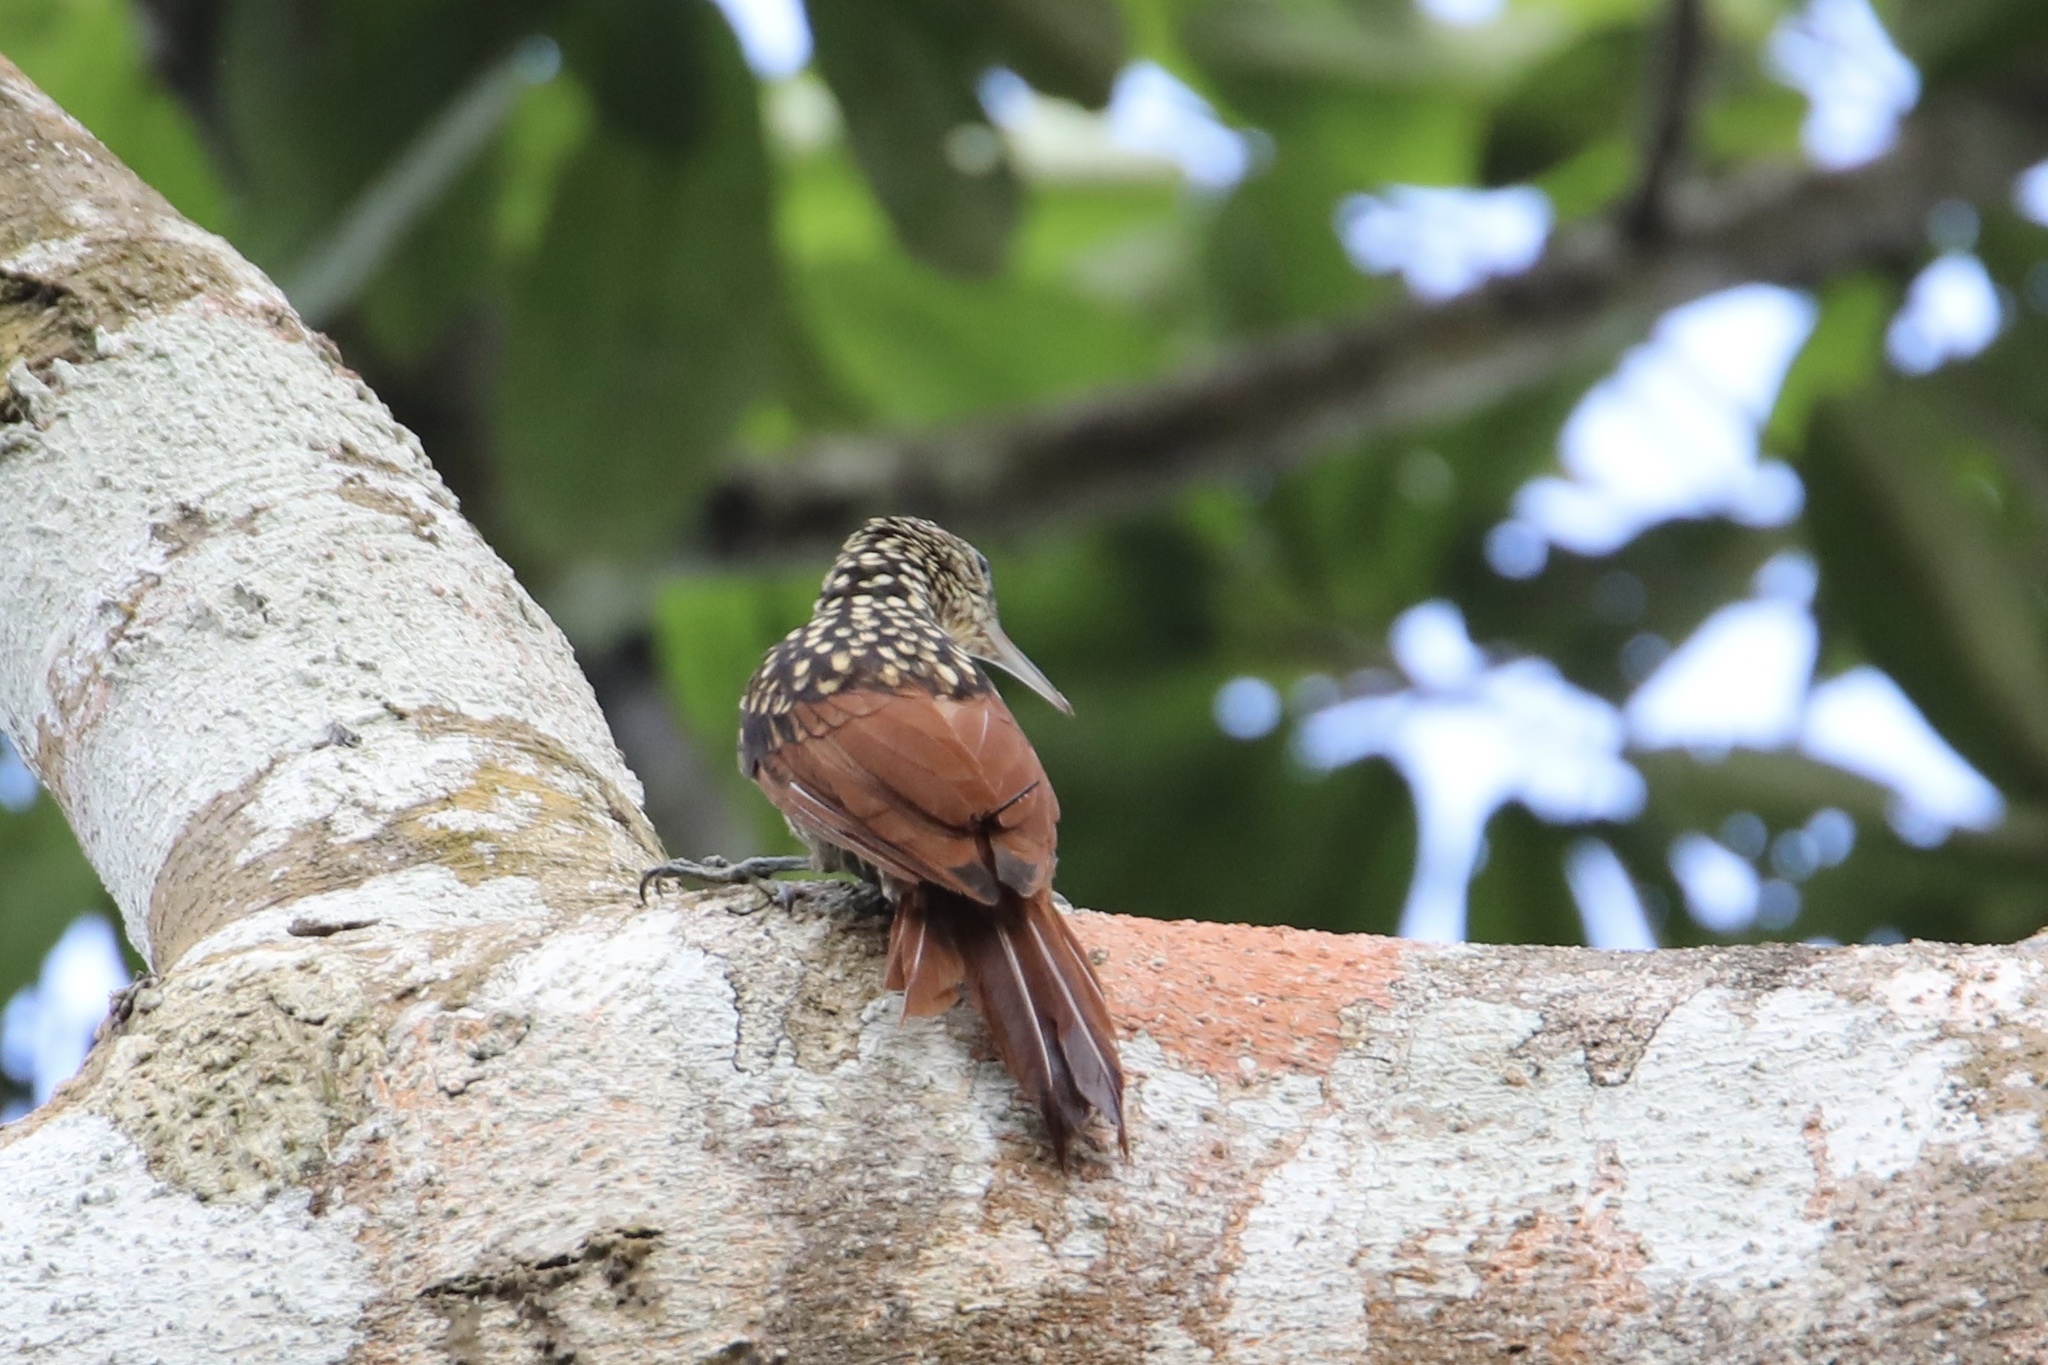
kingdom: Animalia
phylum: Chordata
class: Aves
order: Passeriformes
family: Furnariidae
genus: Xiphorhynchus
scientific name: Xiphorhynchus lachrymosus
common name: Black-striped woodcreeper
